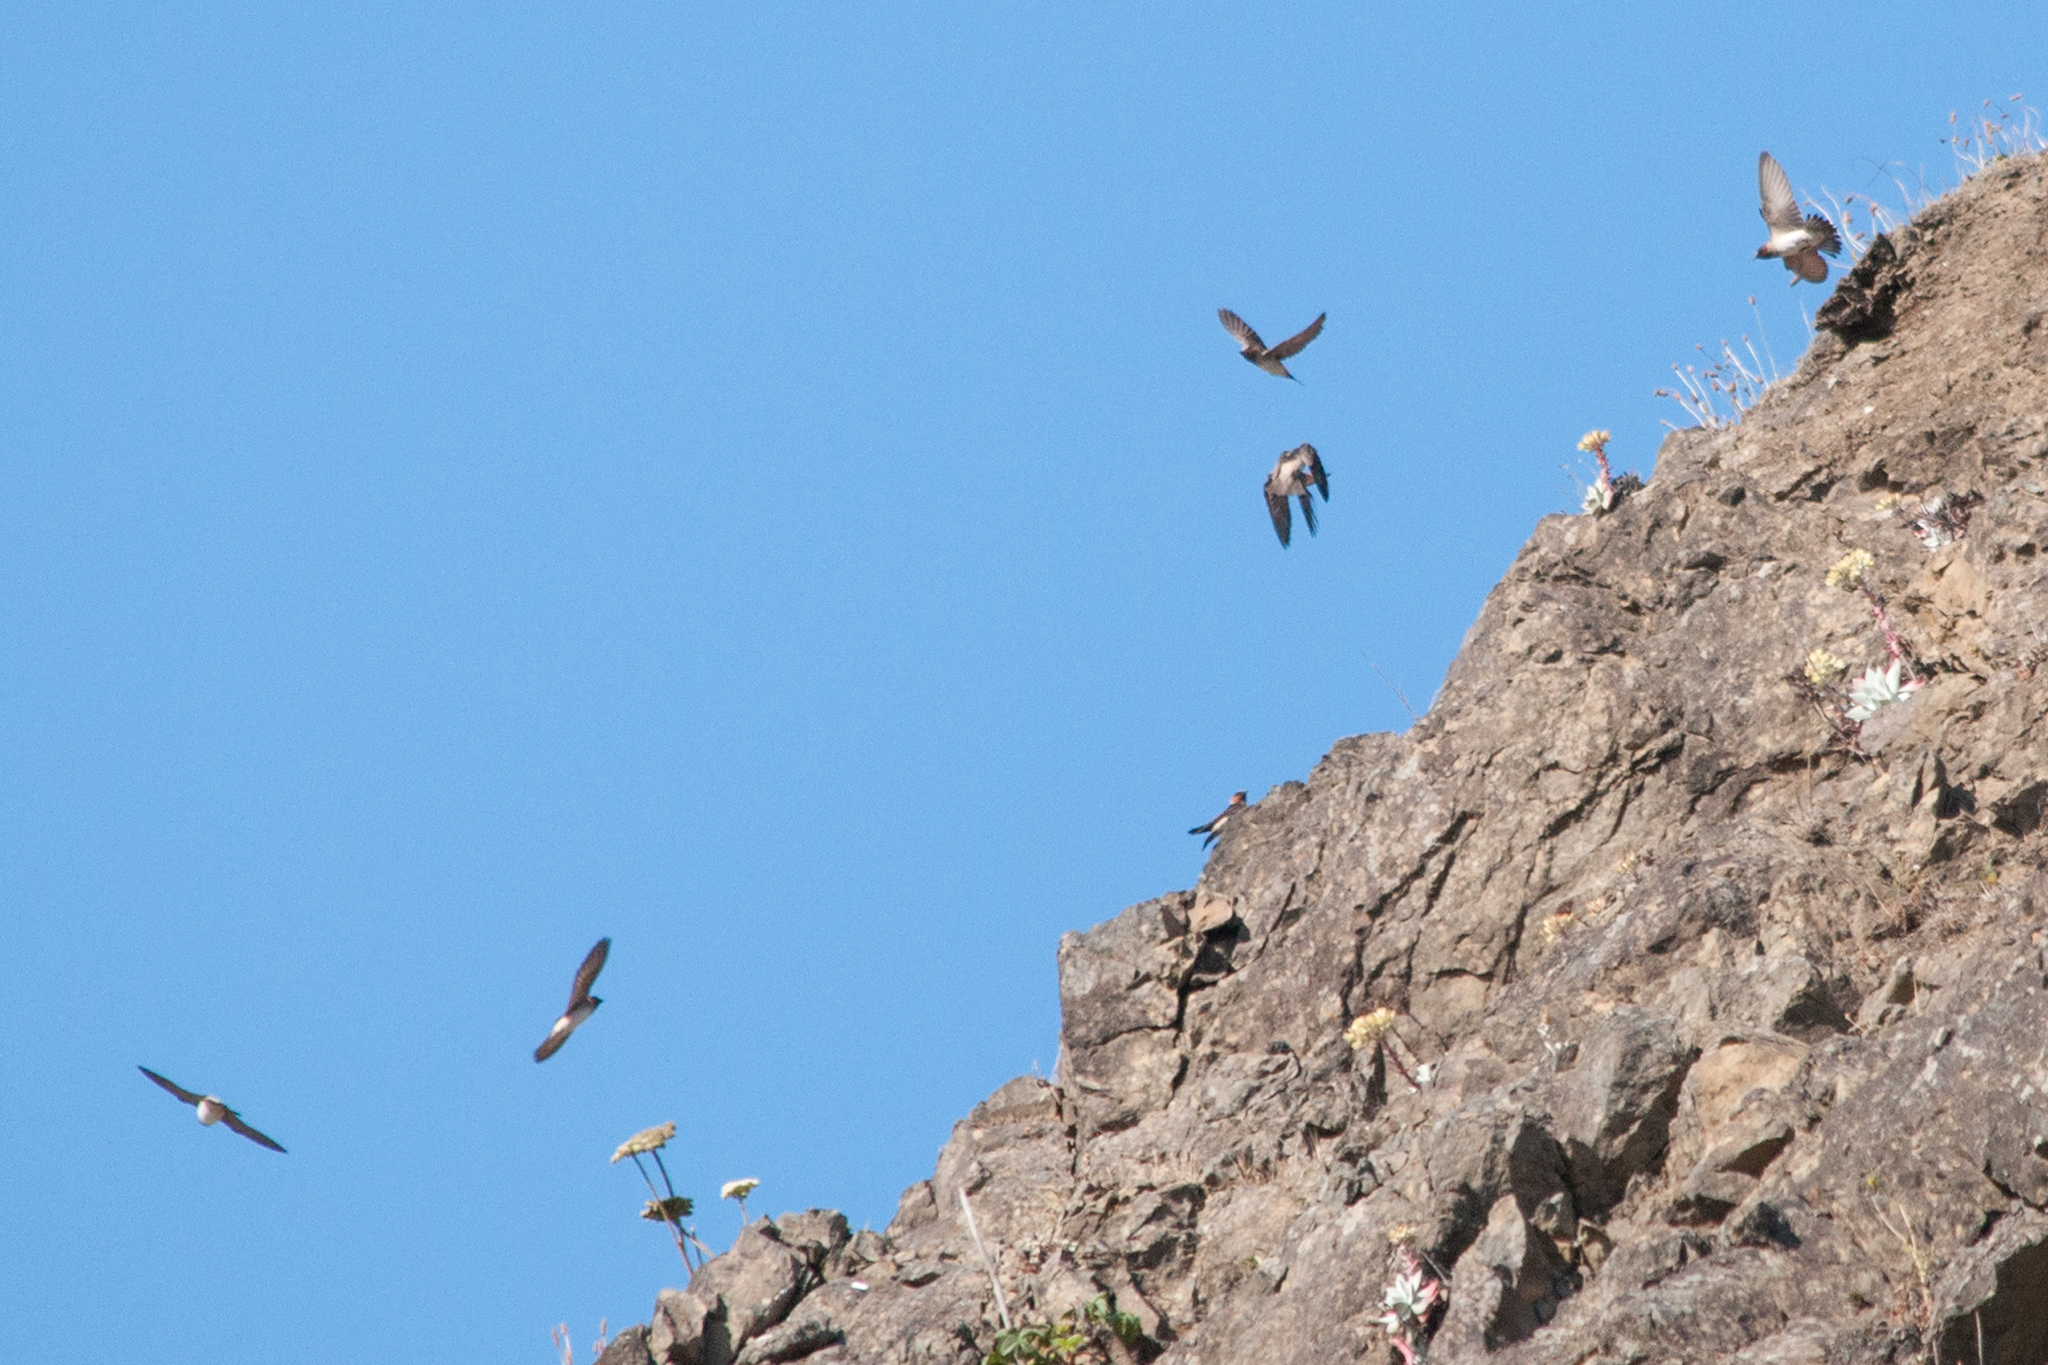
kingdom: Animalia
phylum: Chordata
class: Aves
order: Passeriformes
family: Hirundinidae
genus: Petrochelidon
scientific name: Petrochelidon pyrrhonota
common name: American cliff swallow
